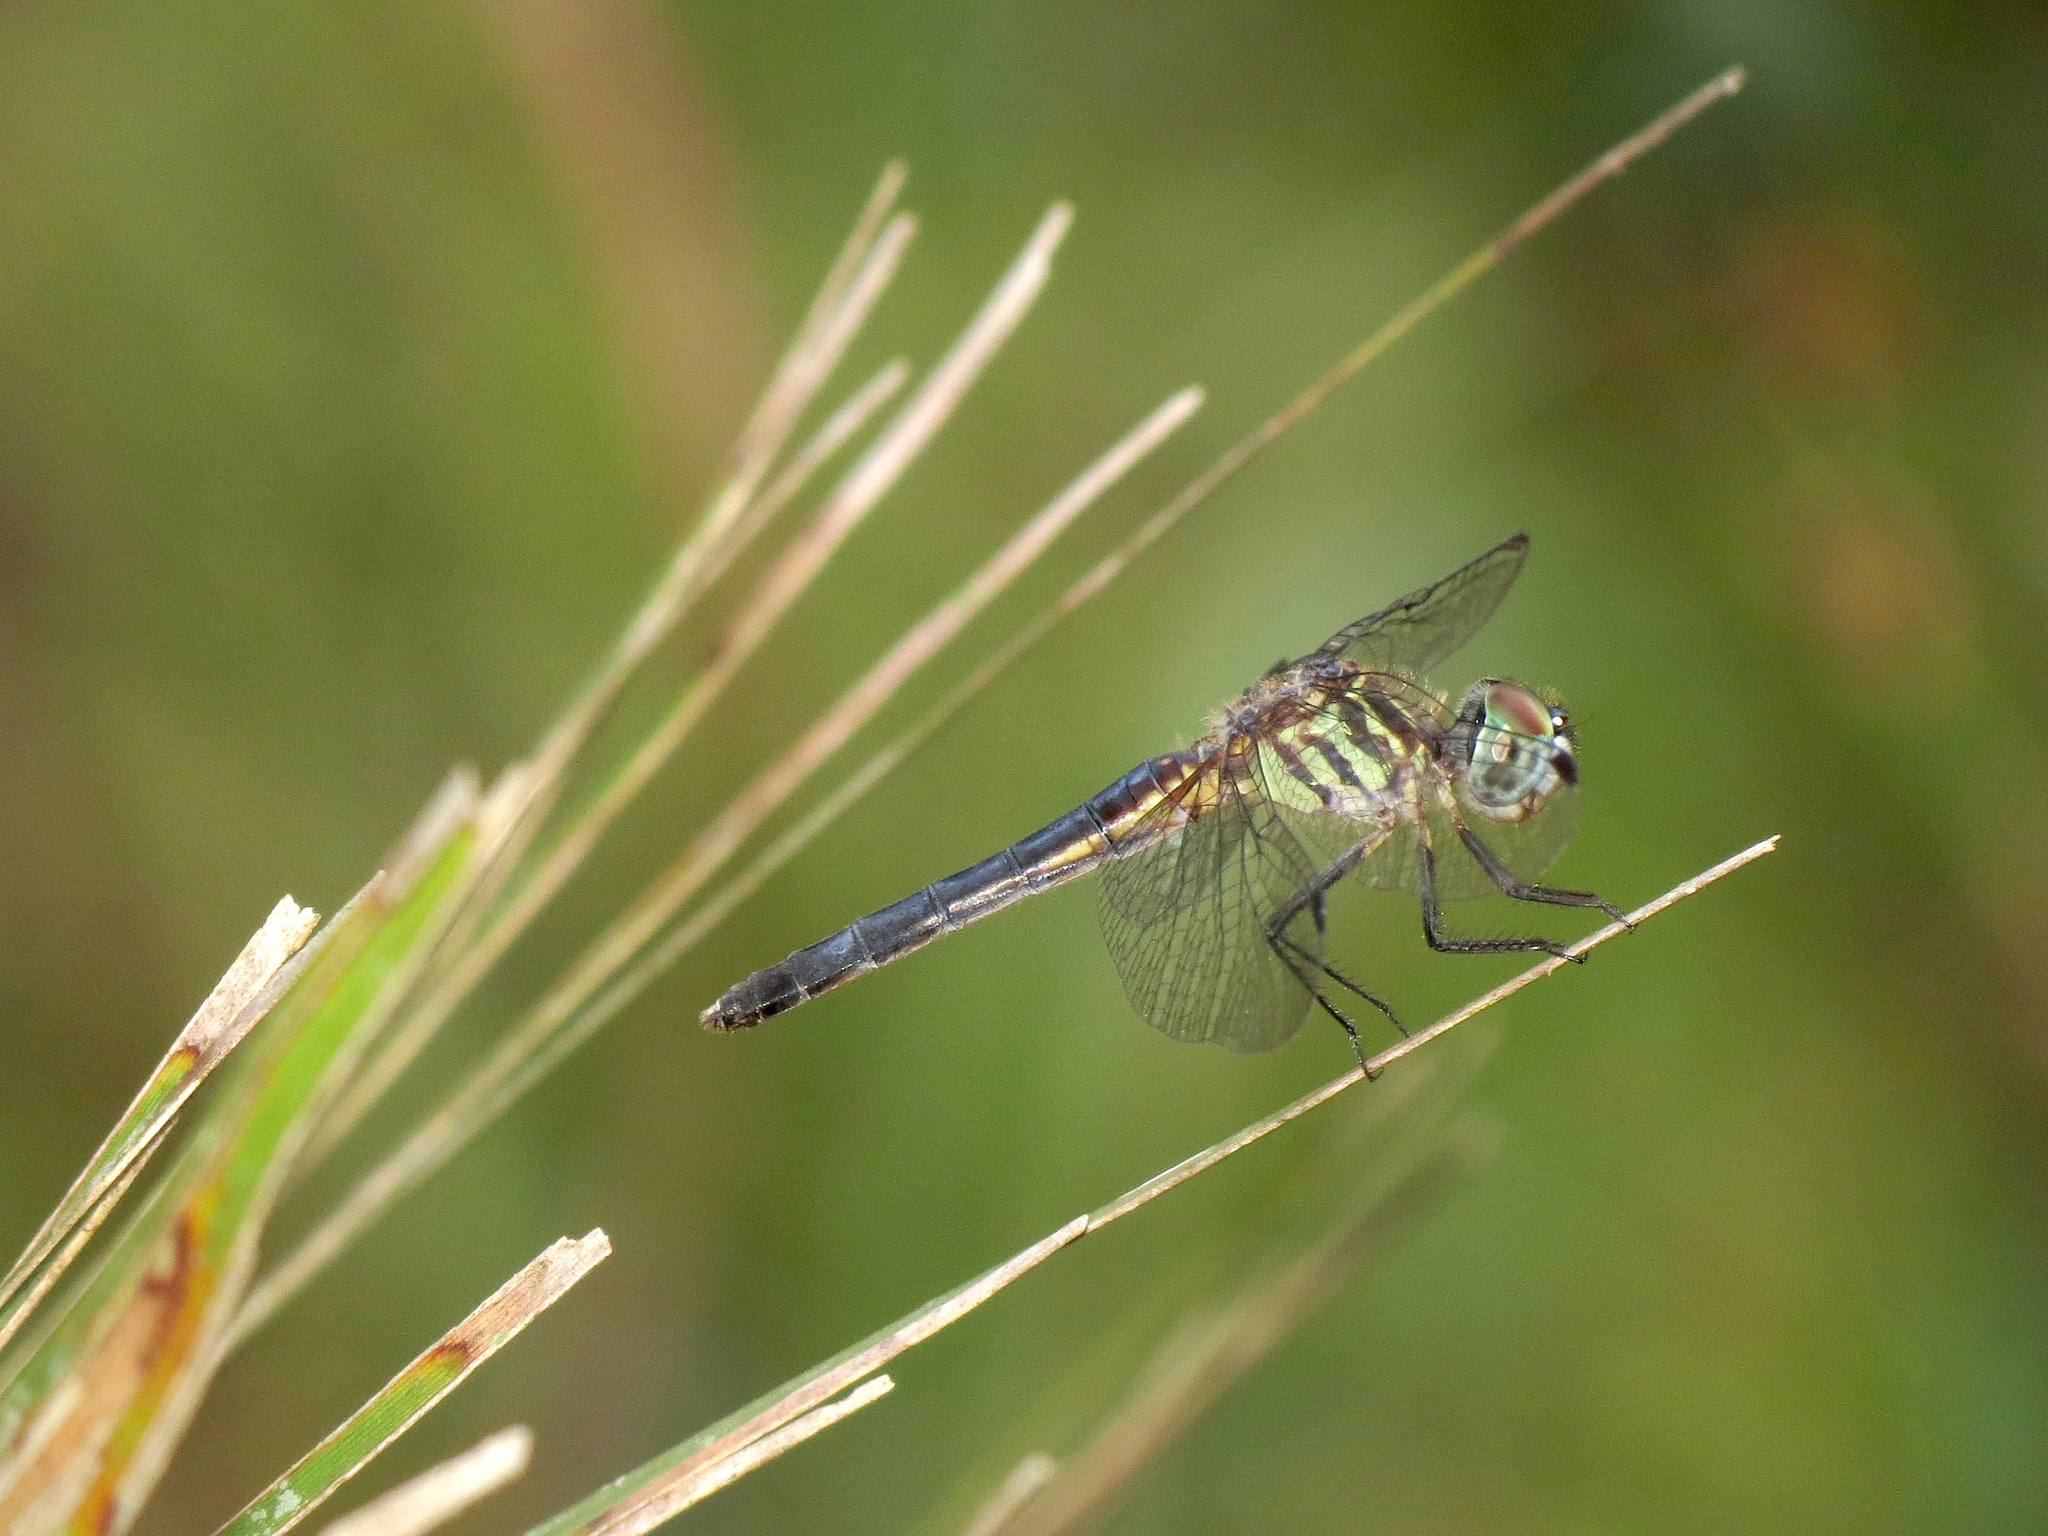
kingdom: Animalia
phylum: Arthropoda
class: Insecta
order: Odonata
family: Libellulidae
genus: Pachydiplax
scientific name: Pachydiplax longipennis
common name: Blue dasher
